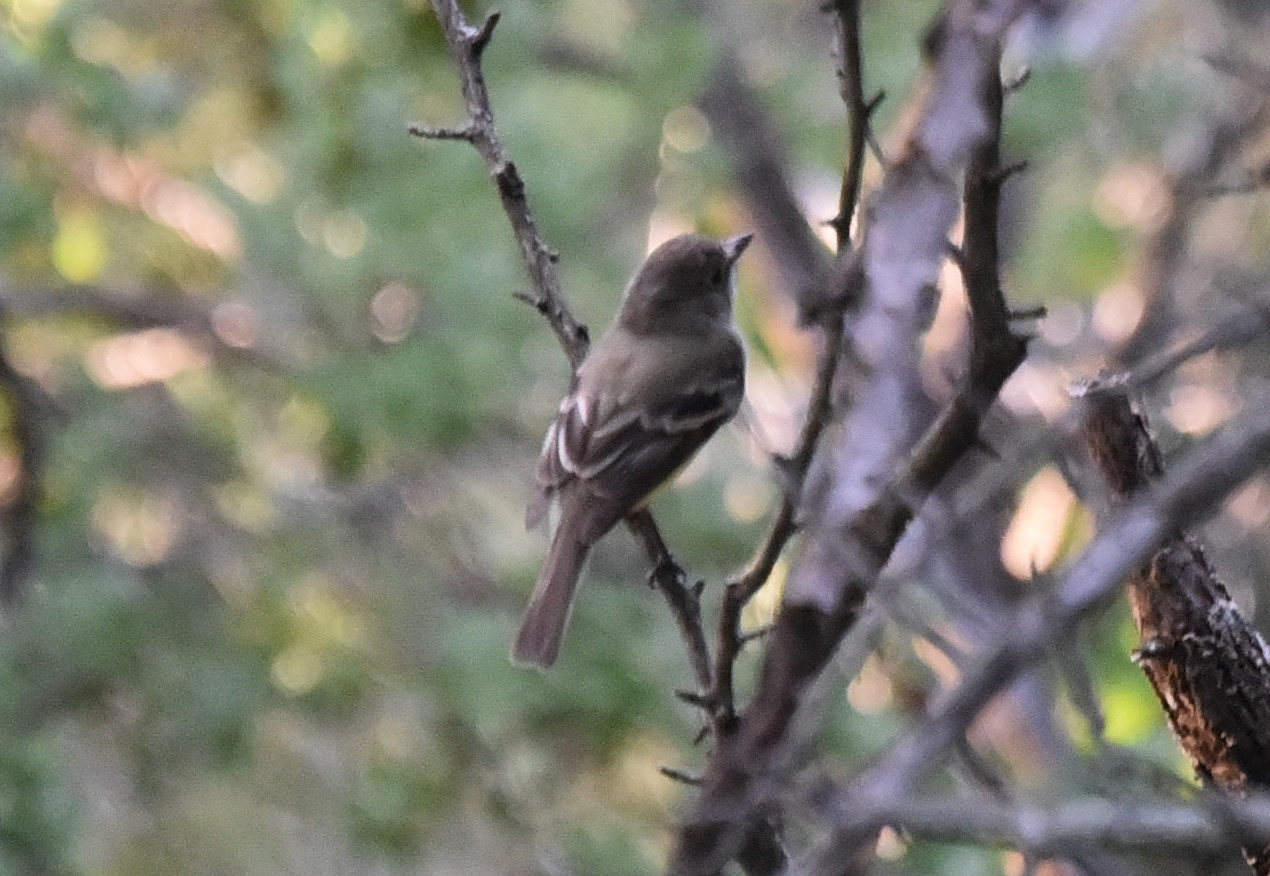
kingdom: Animalia
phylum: Chordata
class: Aves
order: Passeriformes
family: Tyrannidae
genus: Empidonax
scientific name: Empidonax minimus
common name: Least flycatcher
